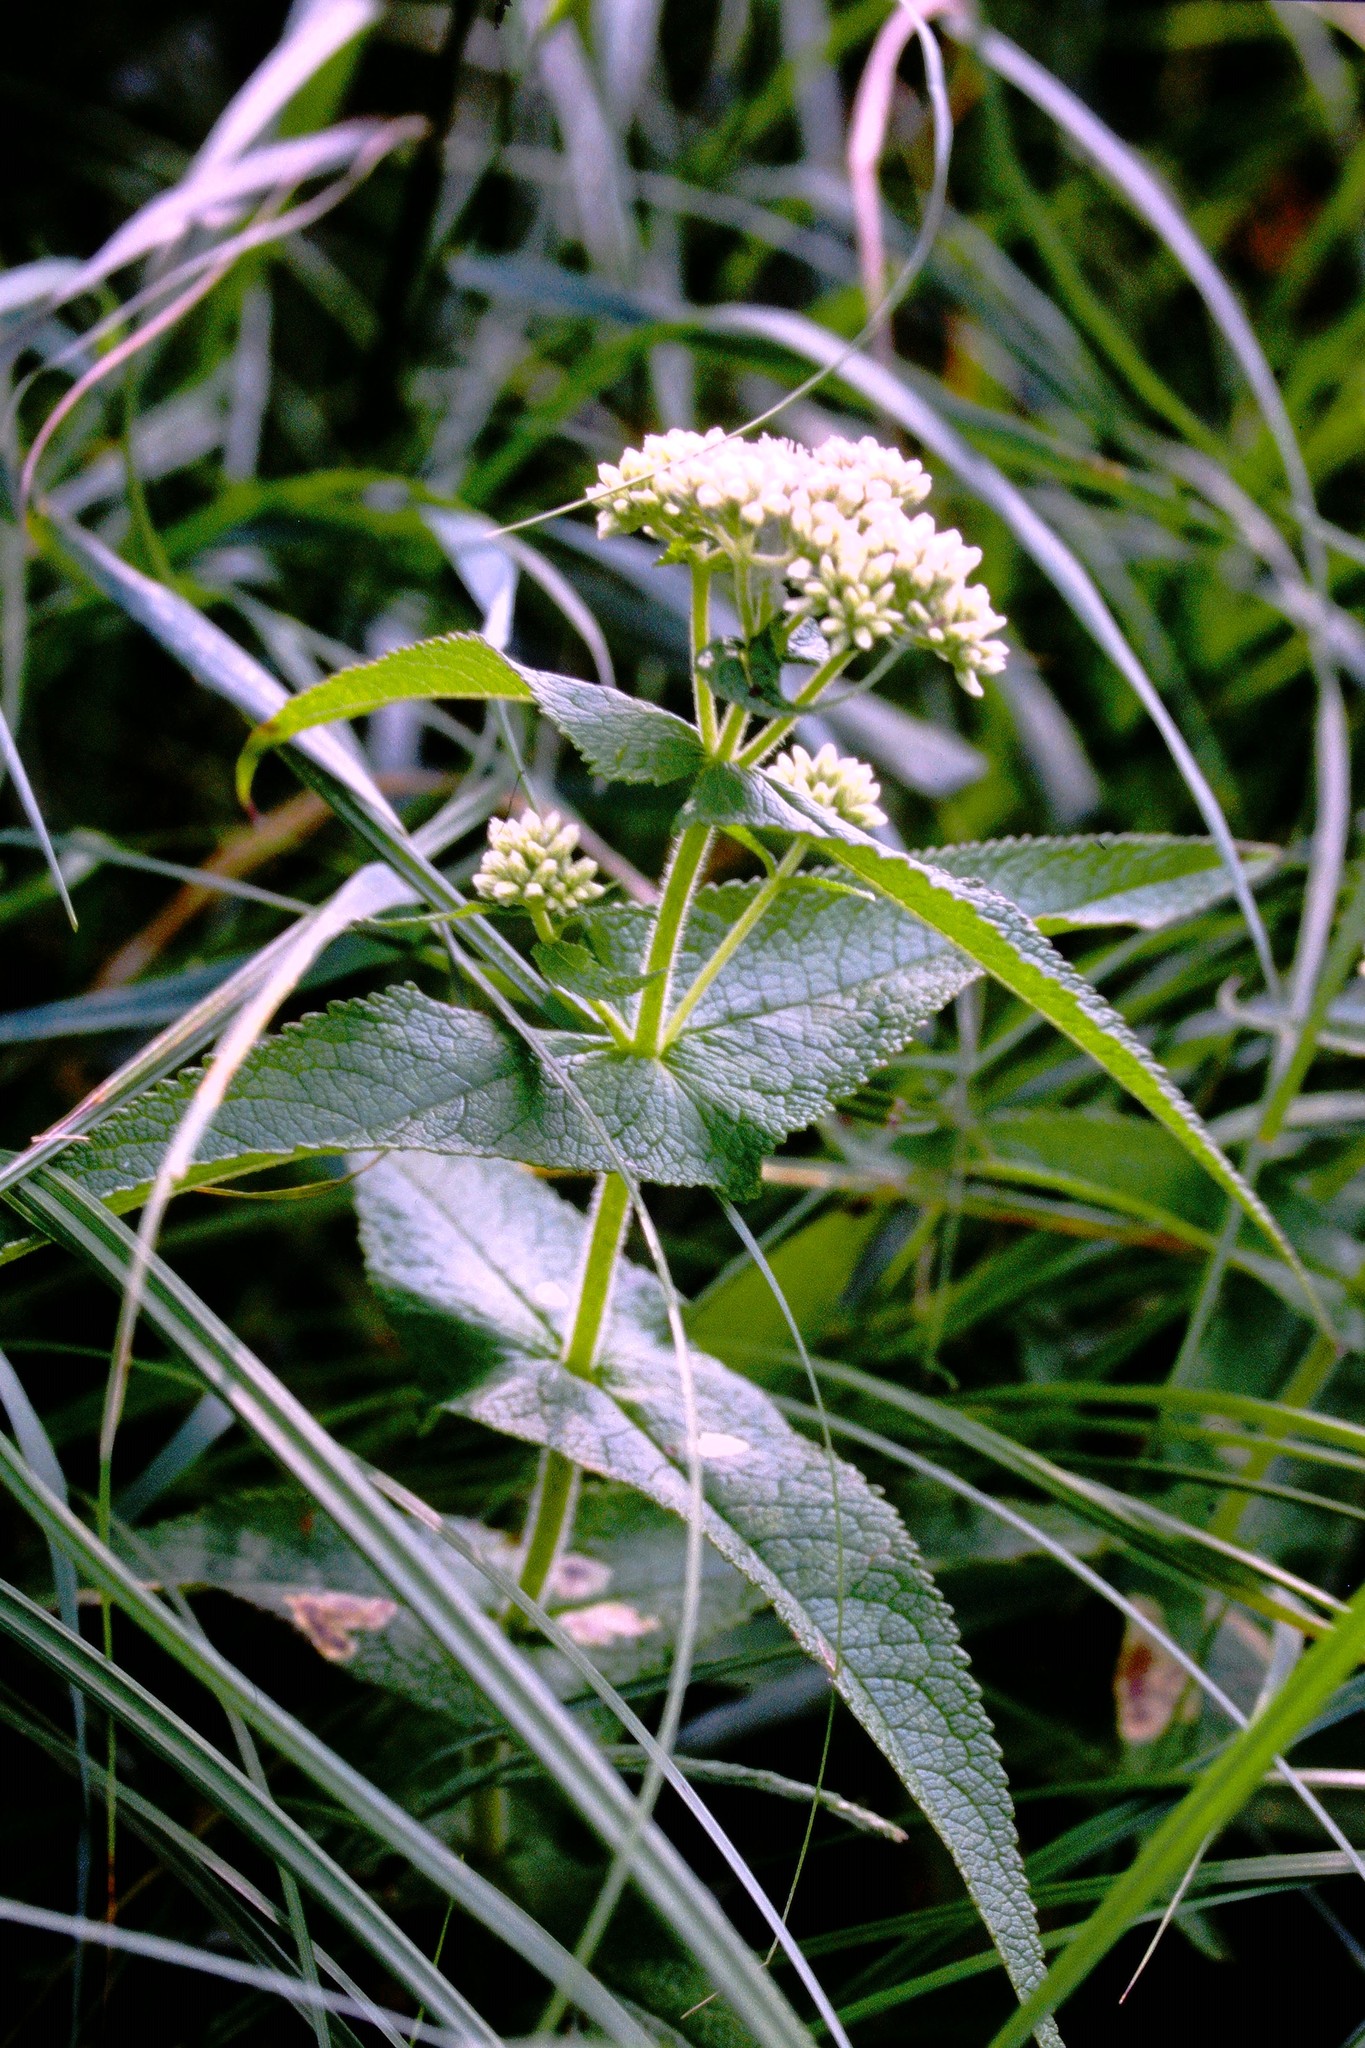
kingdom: Plantae
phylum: Tracheophyta
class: Magnoliopsida
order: Asterales
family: Asteraceae
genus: Eupatorium
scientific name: Eupatorium perfoliatum
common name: Boneset
